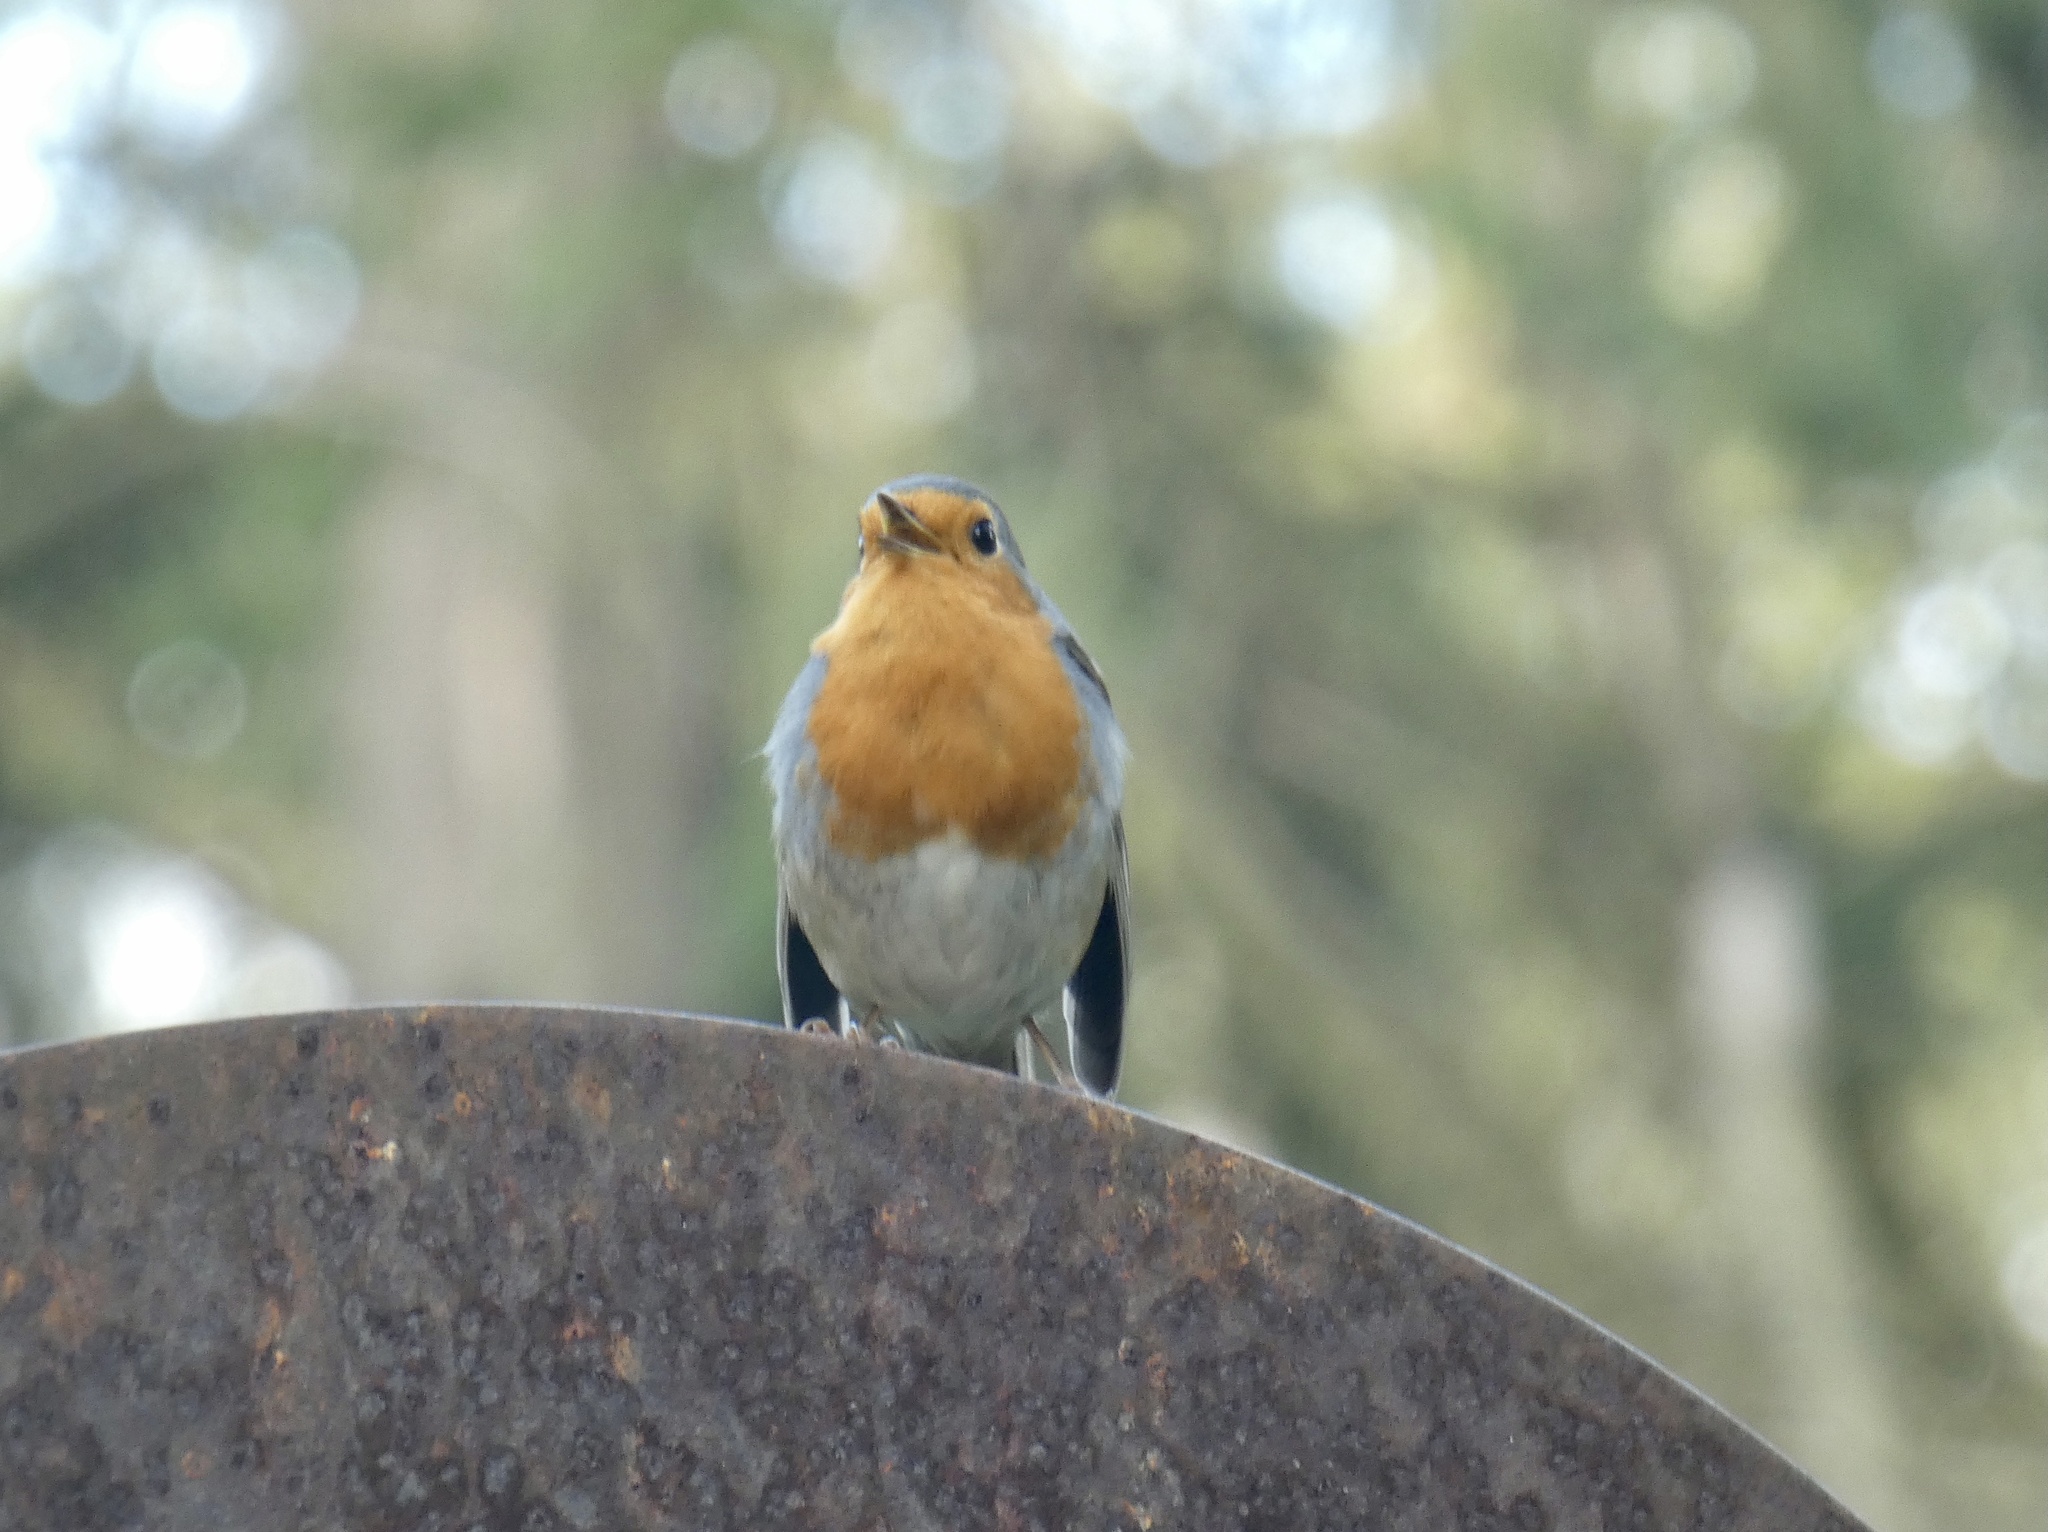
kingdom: Animalia
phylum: Chordata
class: Aves
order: Passeriformes
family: Muscicapidae
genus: Erithacus
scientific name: Erithacus rubecula
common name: European robin
